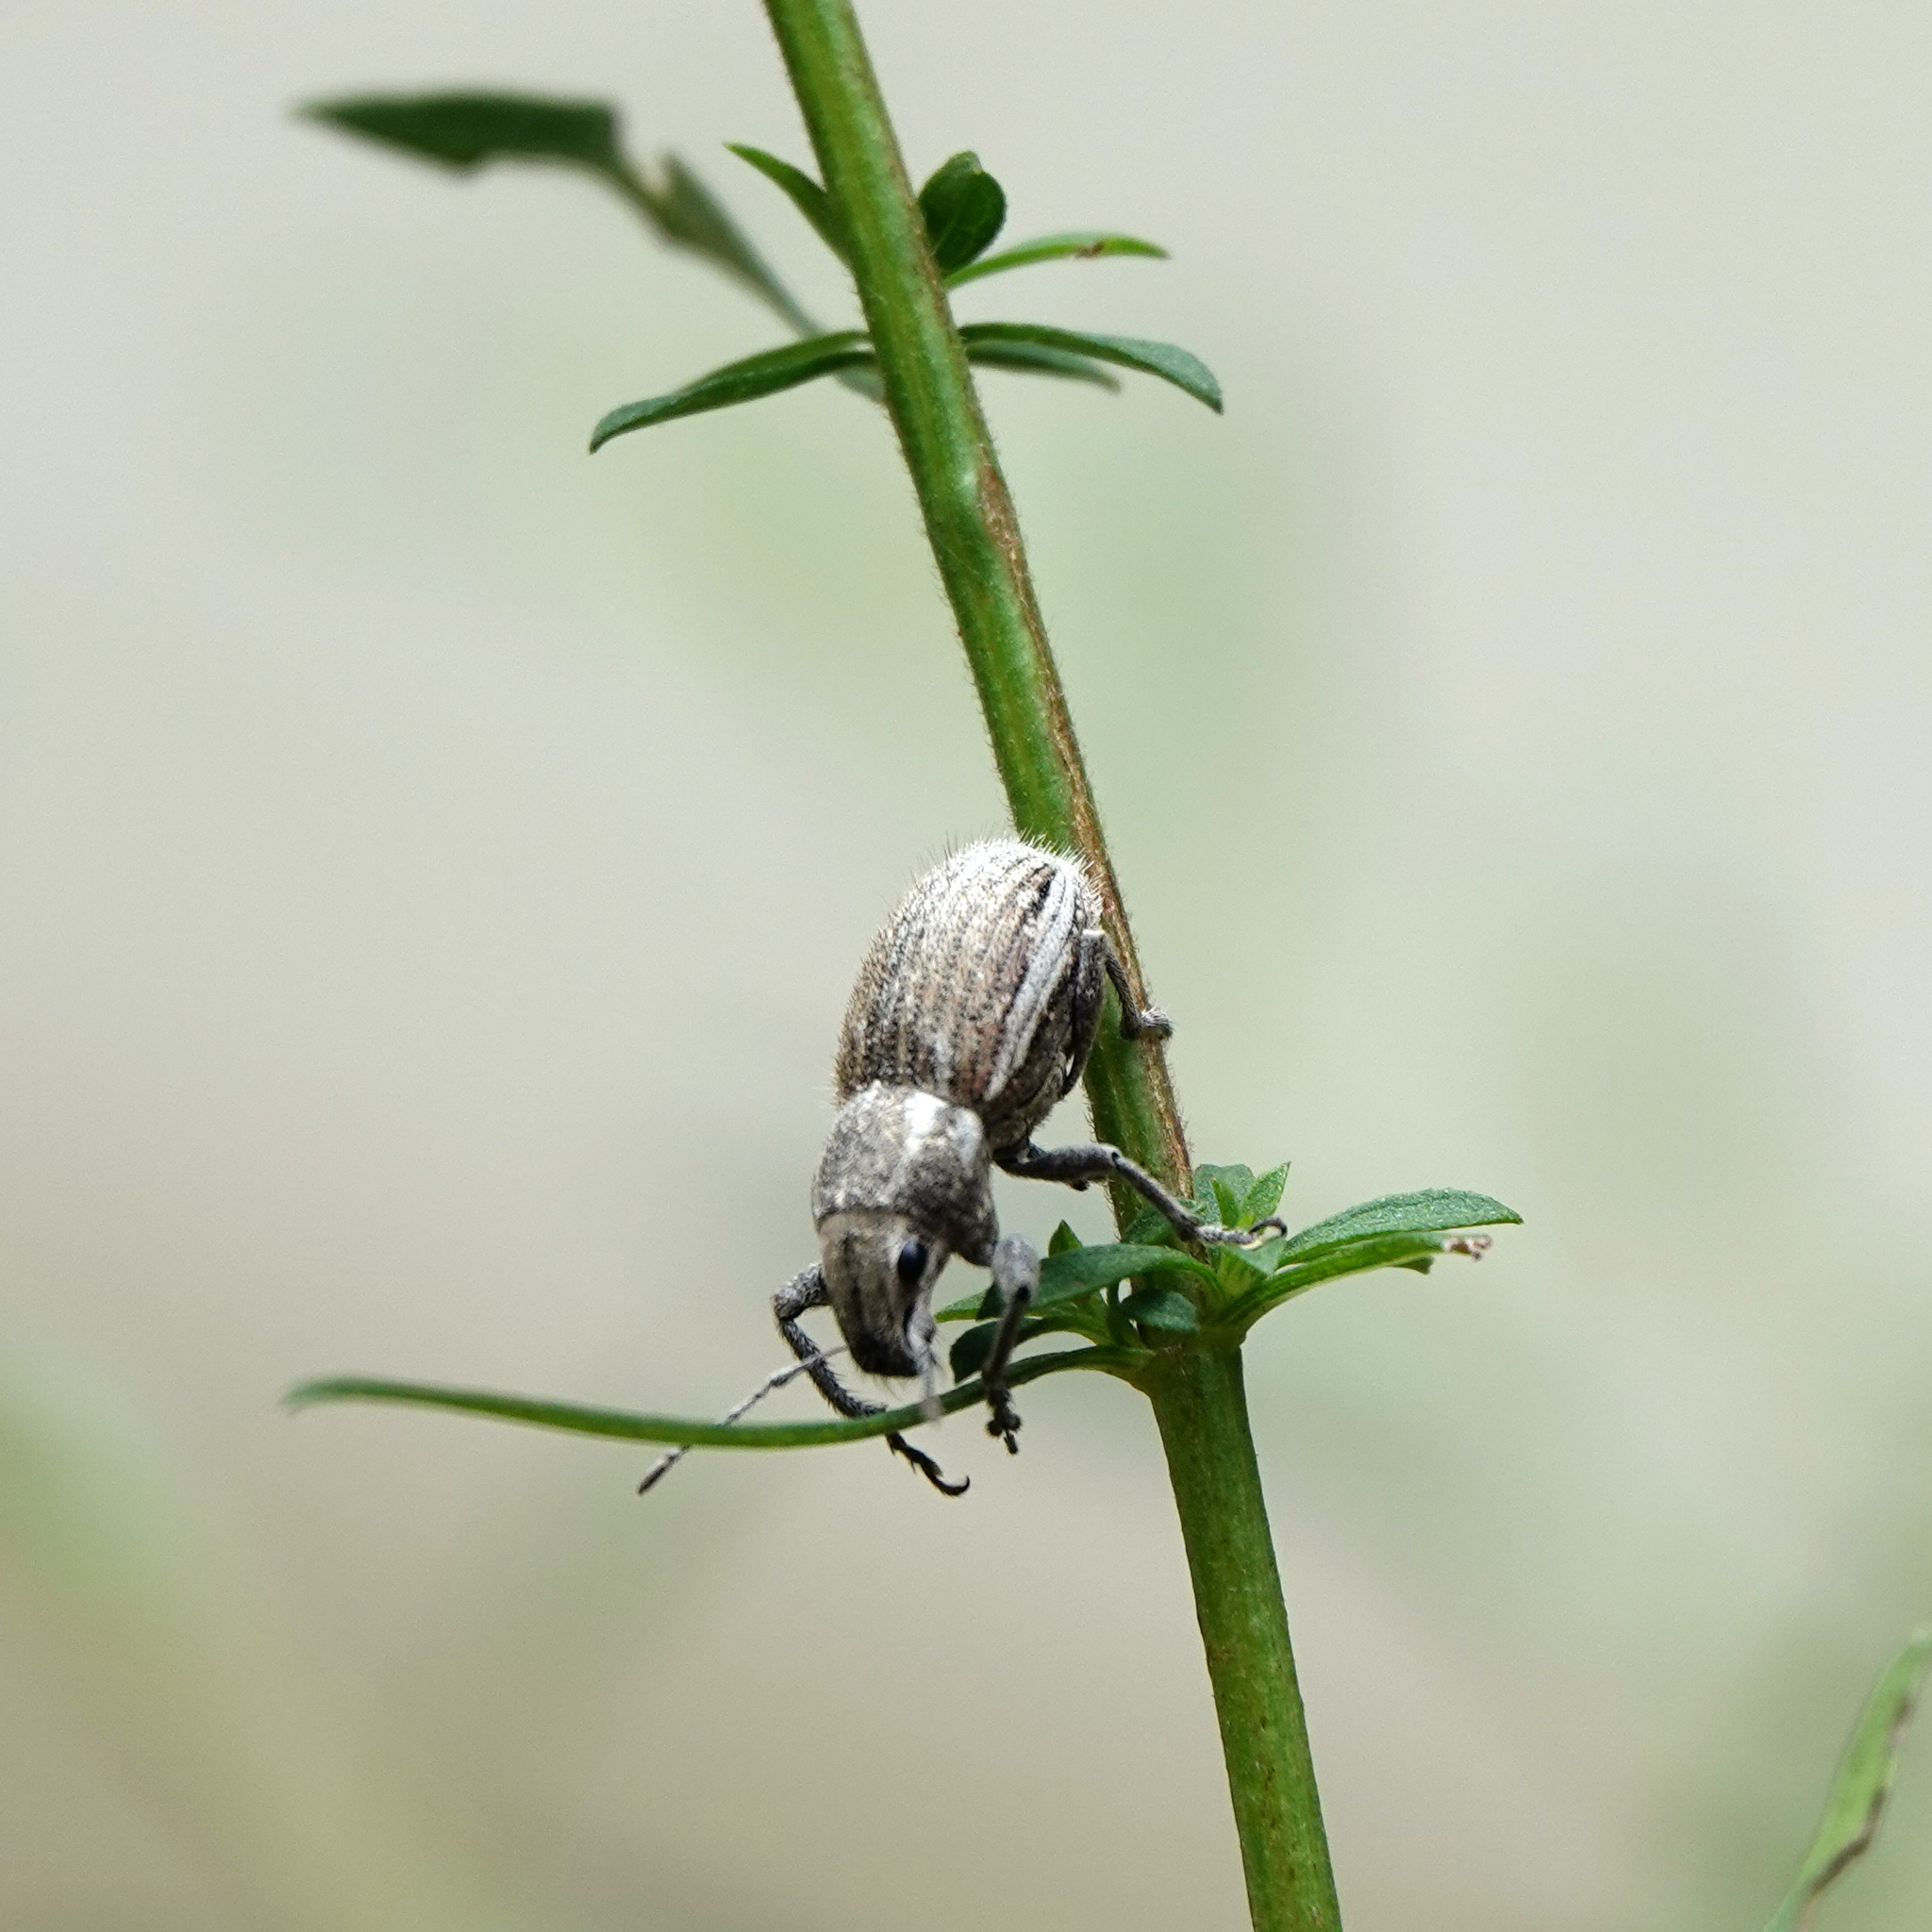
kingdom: Animalia
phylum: Arthropoda
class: Insecta
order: Coleoptera
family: Curculionidae
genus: Naupactus
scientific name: Naupactus leucoloma
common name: Whitefringed beetle
